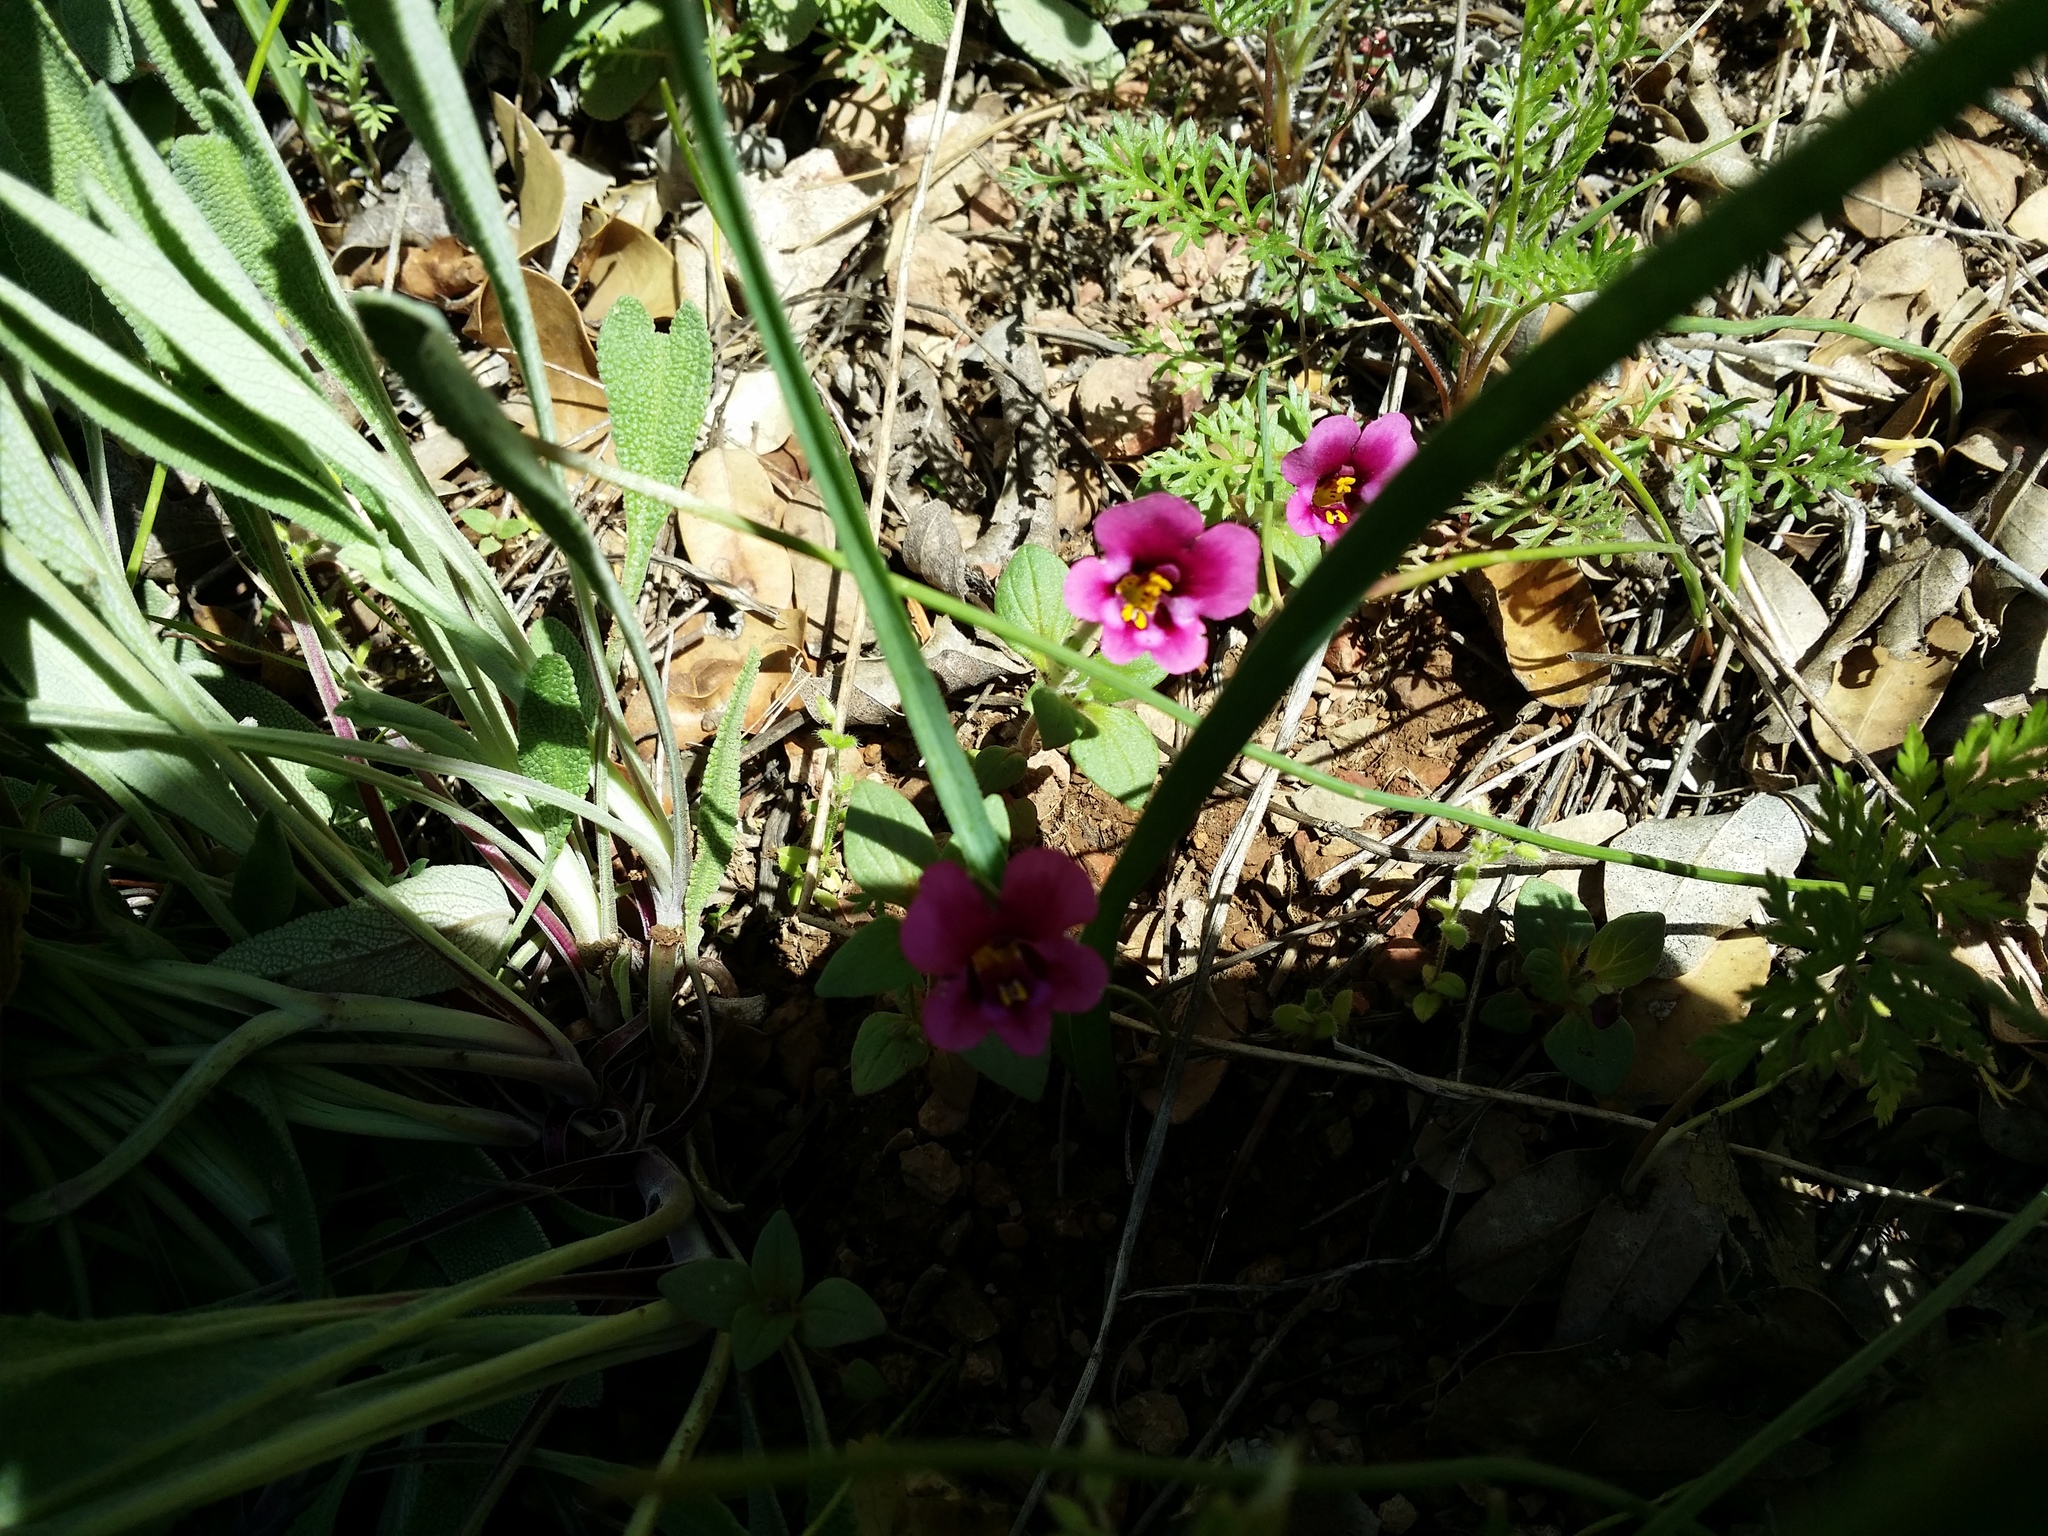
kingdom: Plantae
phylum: Tracheophyta
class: Magnoliopsida
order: Lamiales
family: Phrymaceae
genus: Diplacus
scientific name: Diplacus kelloggii
